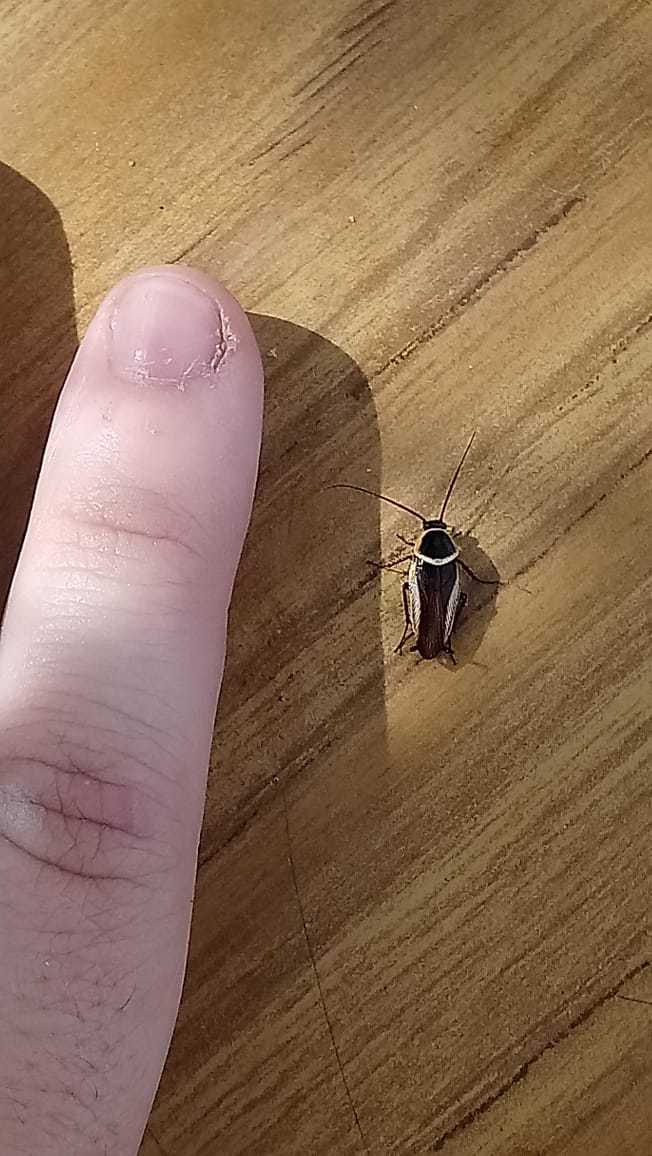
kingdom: Animalia
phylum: Arthropoda
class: Insecta
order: Blattodea
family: Ectobiidae
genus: Pseudomops
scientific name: Pseudomops neglectus
